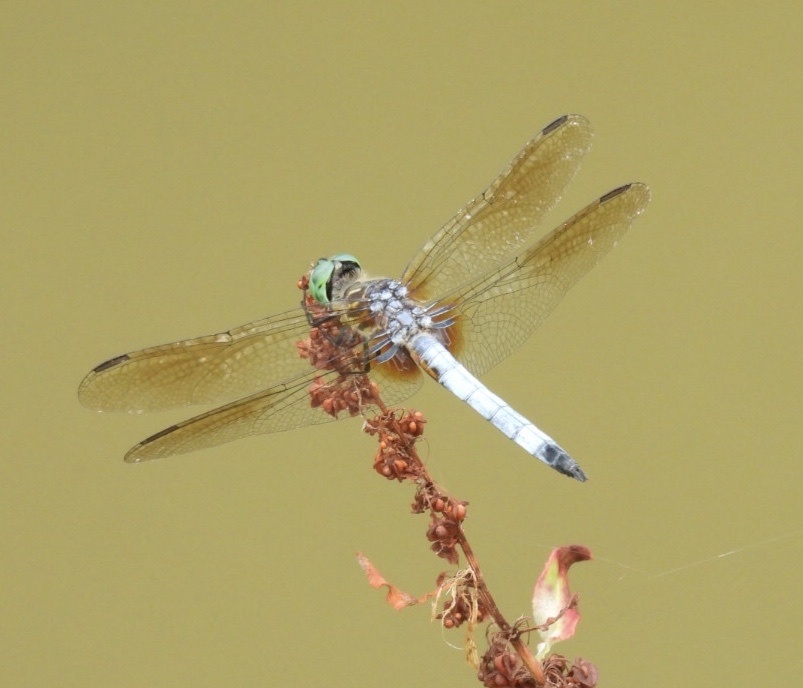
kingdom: Animalia
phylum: Arthropoda
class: Insecta
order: Odonata
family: Libellulidae
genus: Pachydiplax
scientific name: Pachydiplax longipennis
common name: Blue dasher
